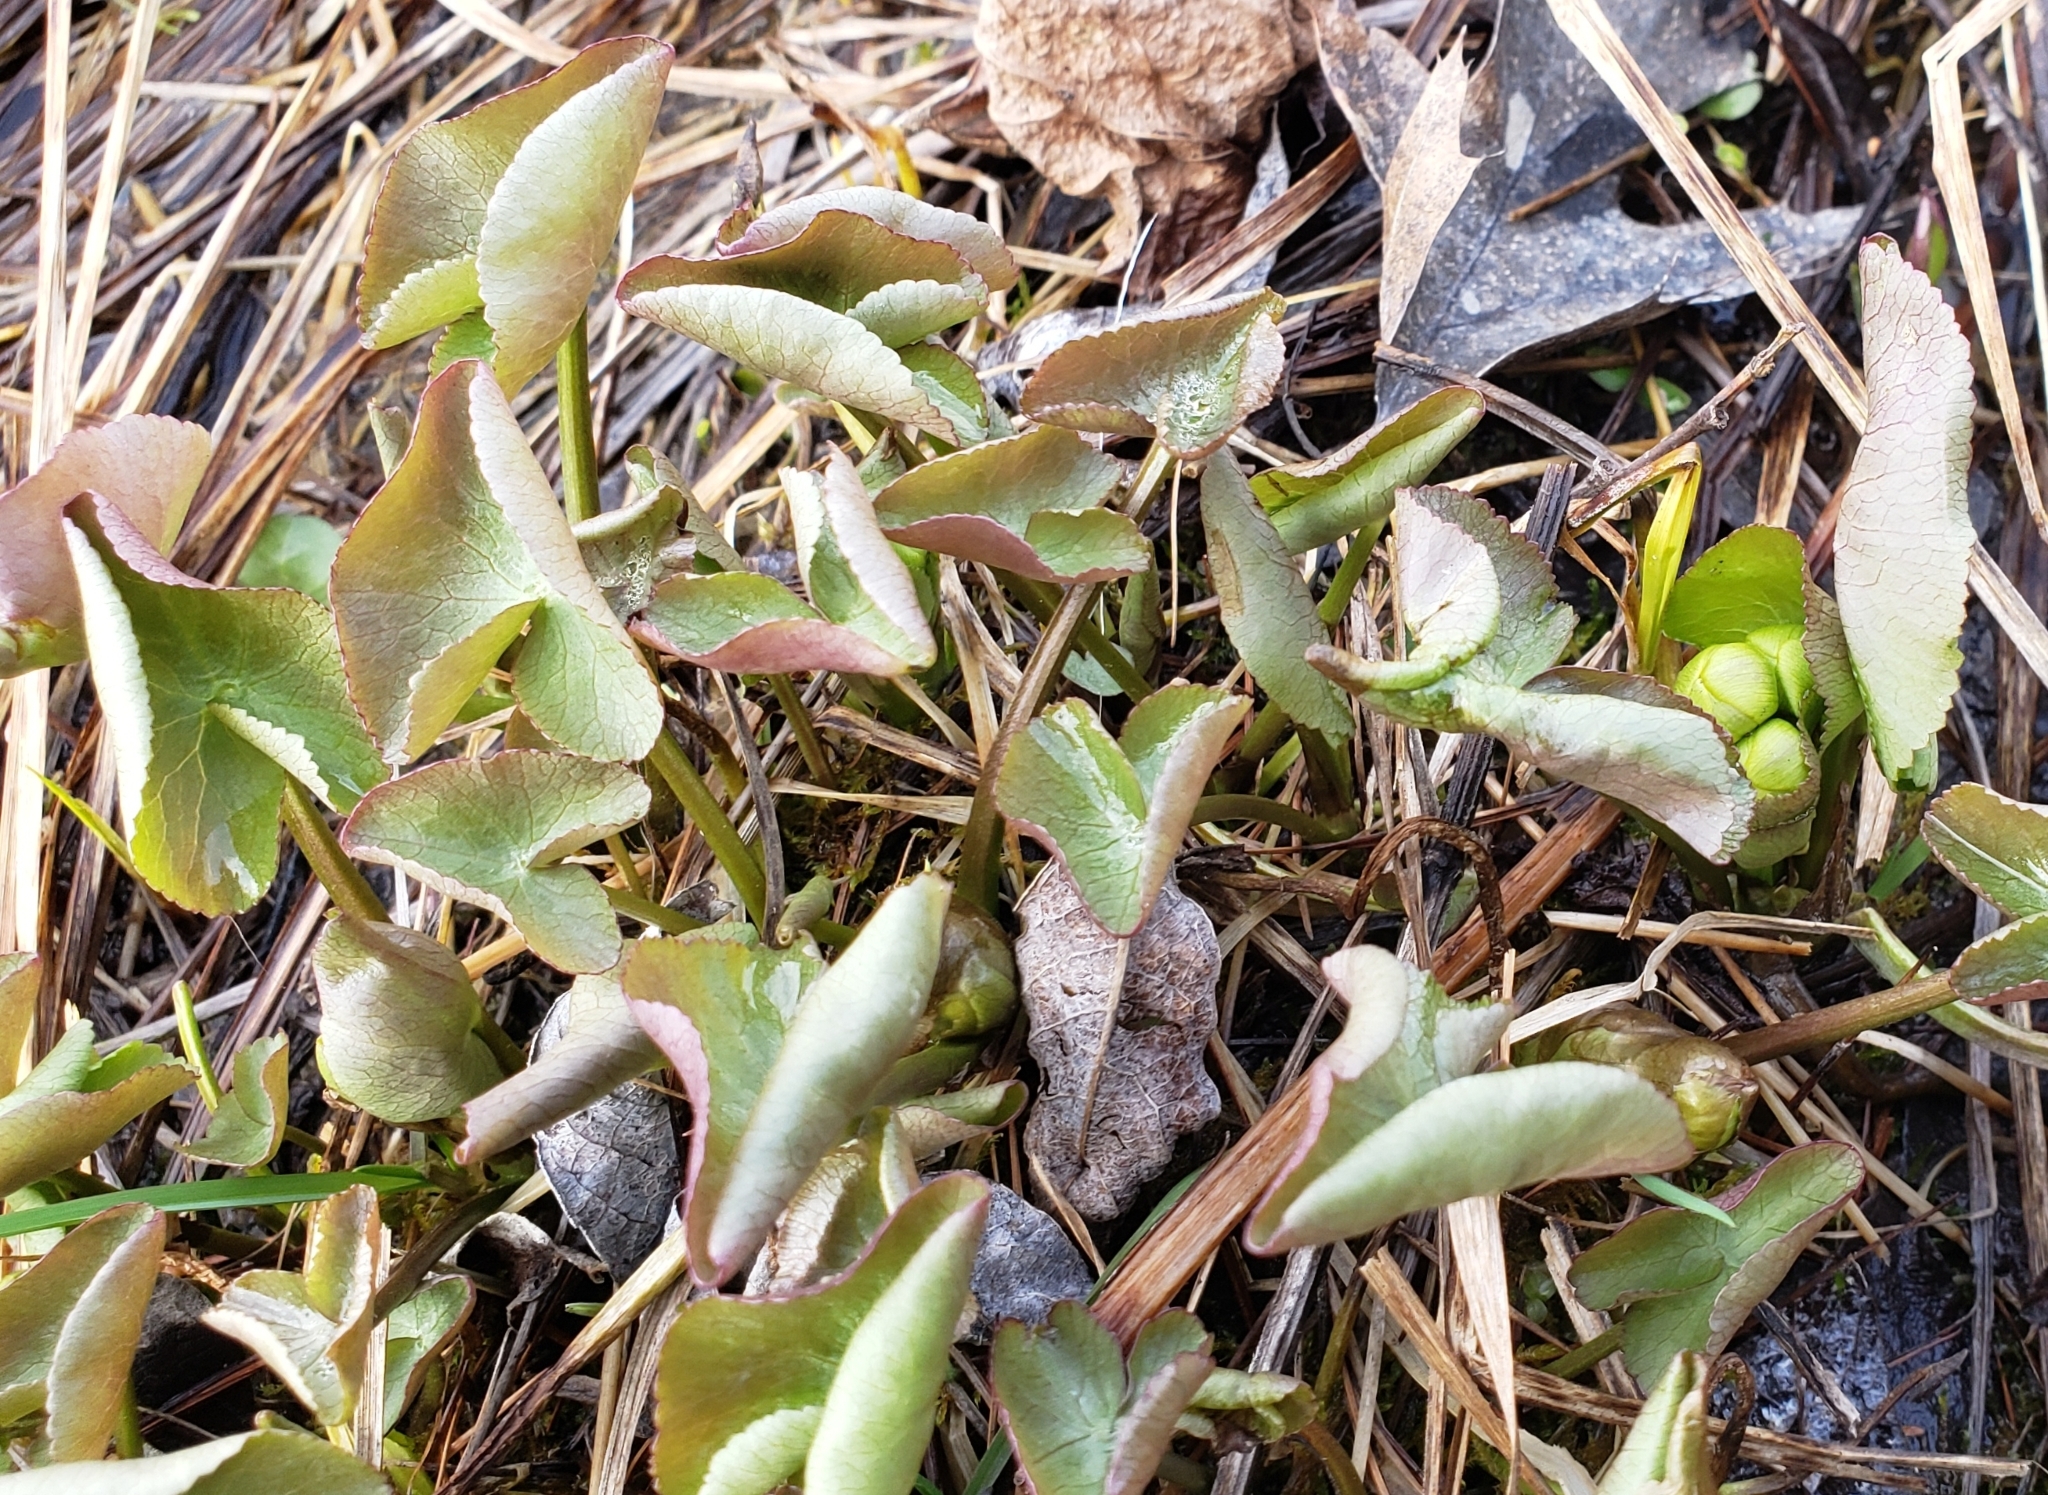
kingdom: Plantae
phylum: Tracheophyta
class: Magnoliopsida
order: Ranunculales
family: Ranunculaceae
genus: Caltha
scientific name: Caltha palustris
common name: Marsh marigold
